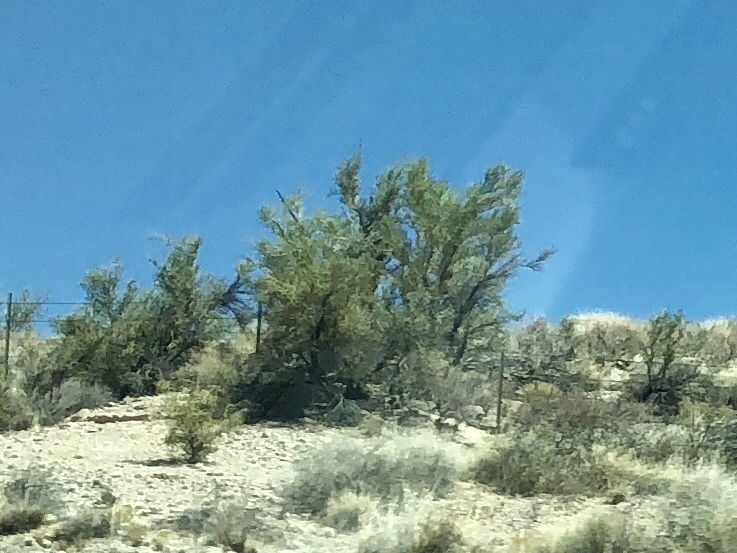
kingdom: Plantae
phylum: Tracheophyta
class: Magnoliopsida
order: Celastrales
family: Celastraceae
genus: Canotia
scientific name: Canotia holacantha
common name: Crucifixion thorns
